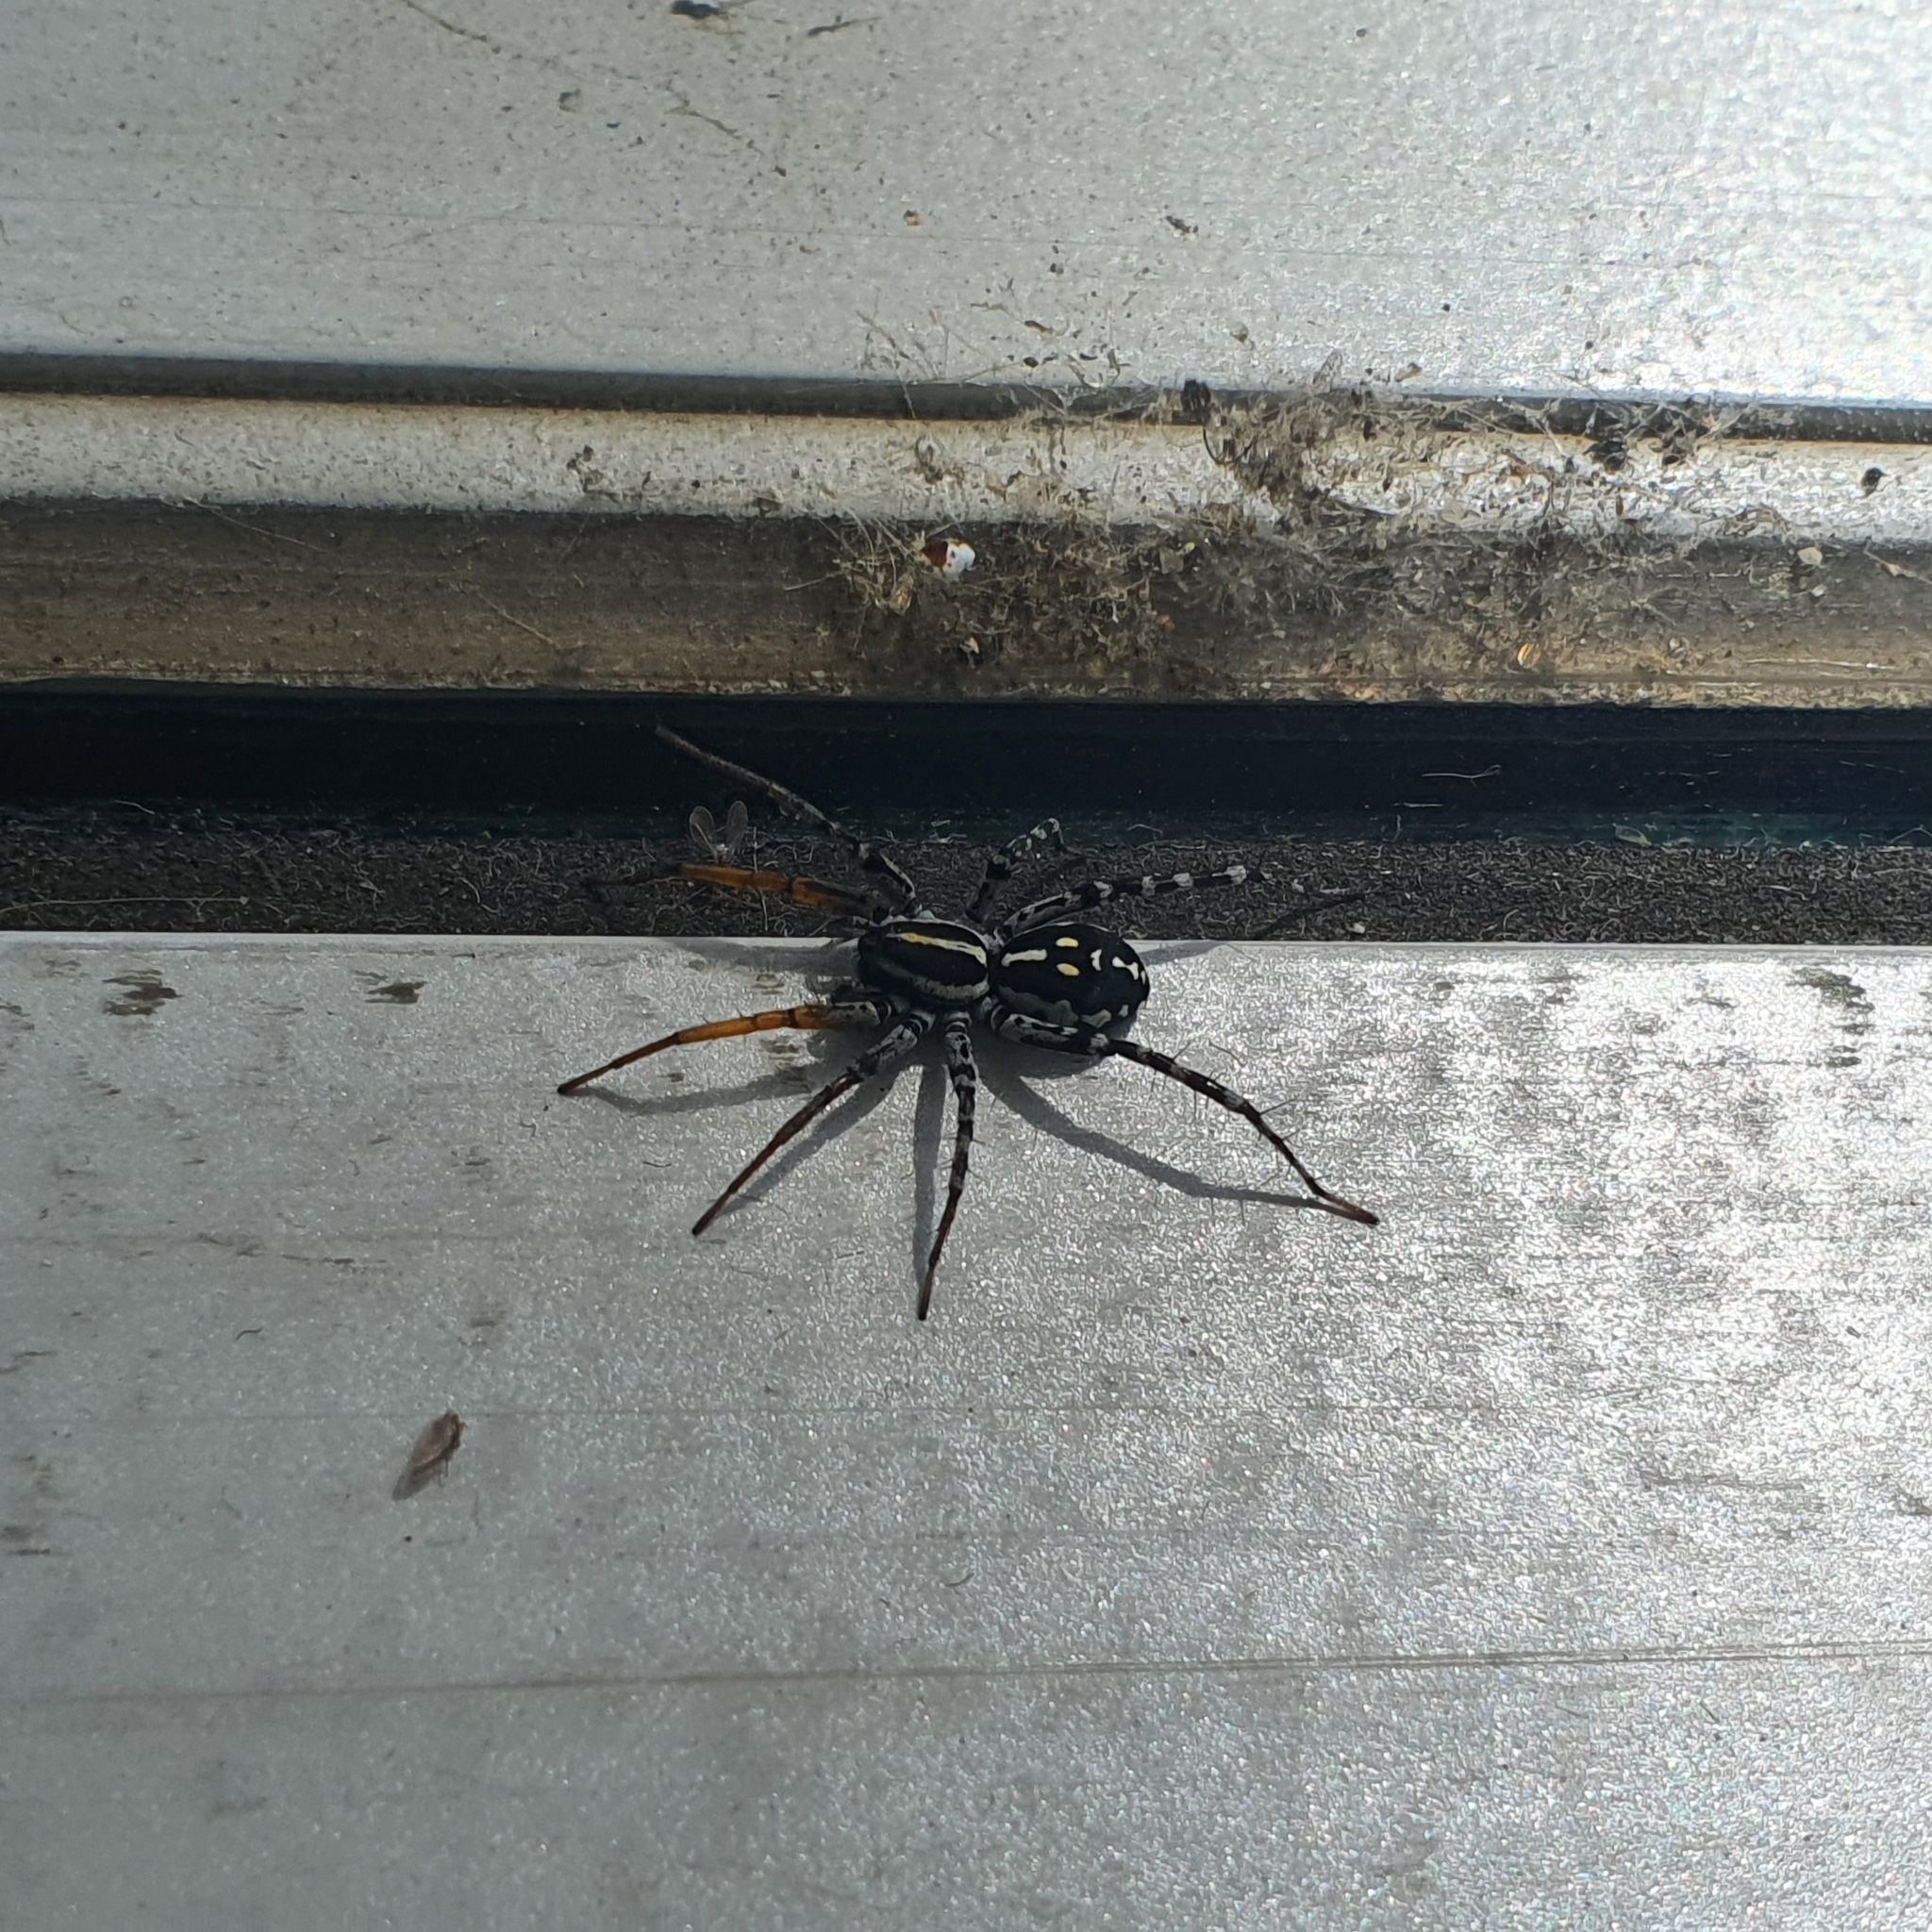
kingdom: Animalia
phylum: Arthropoda
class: Arachnida
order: Araneae
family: Corinnidae
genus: Nyssus
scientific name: Nyssus coloripes
